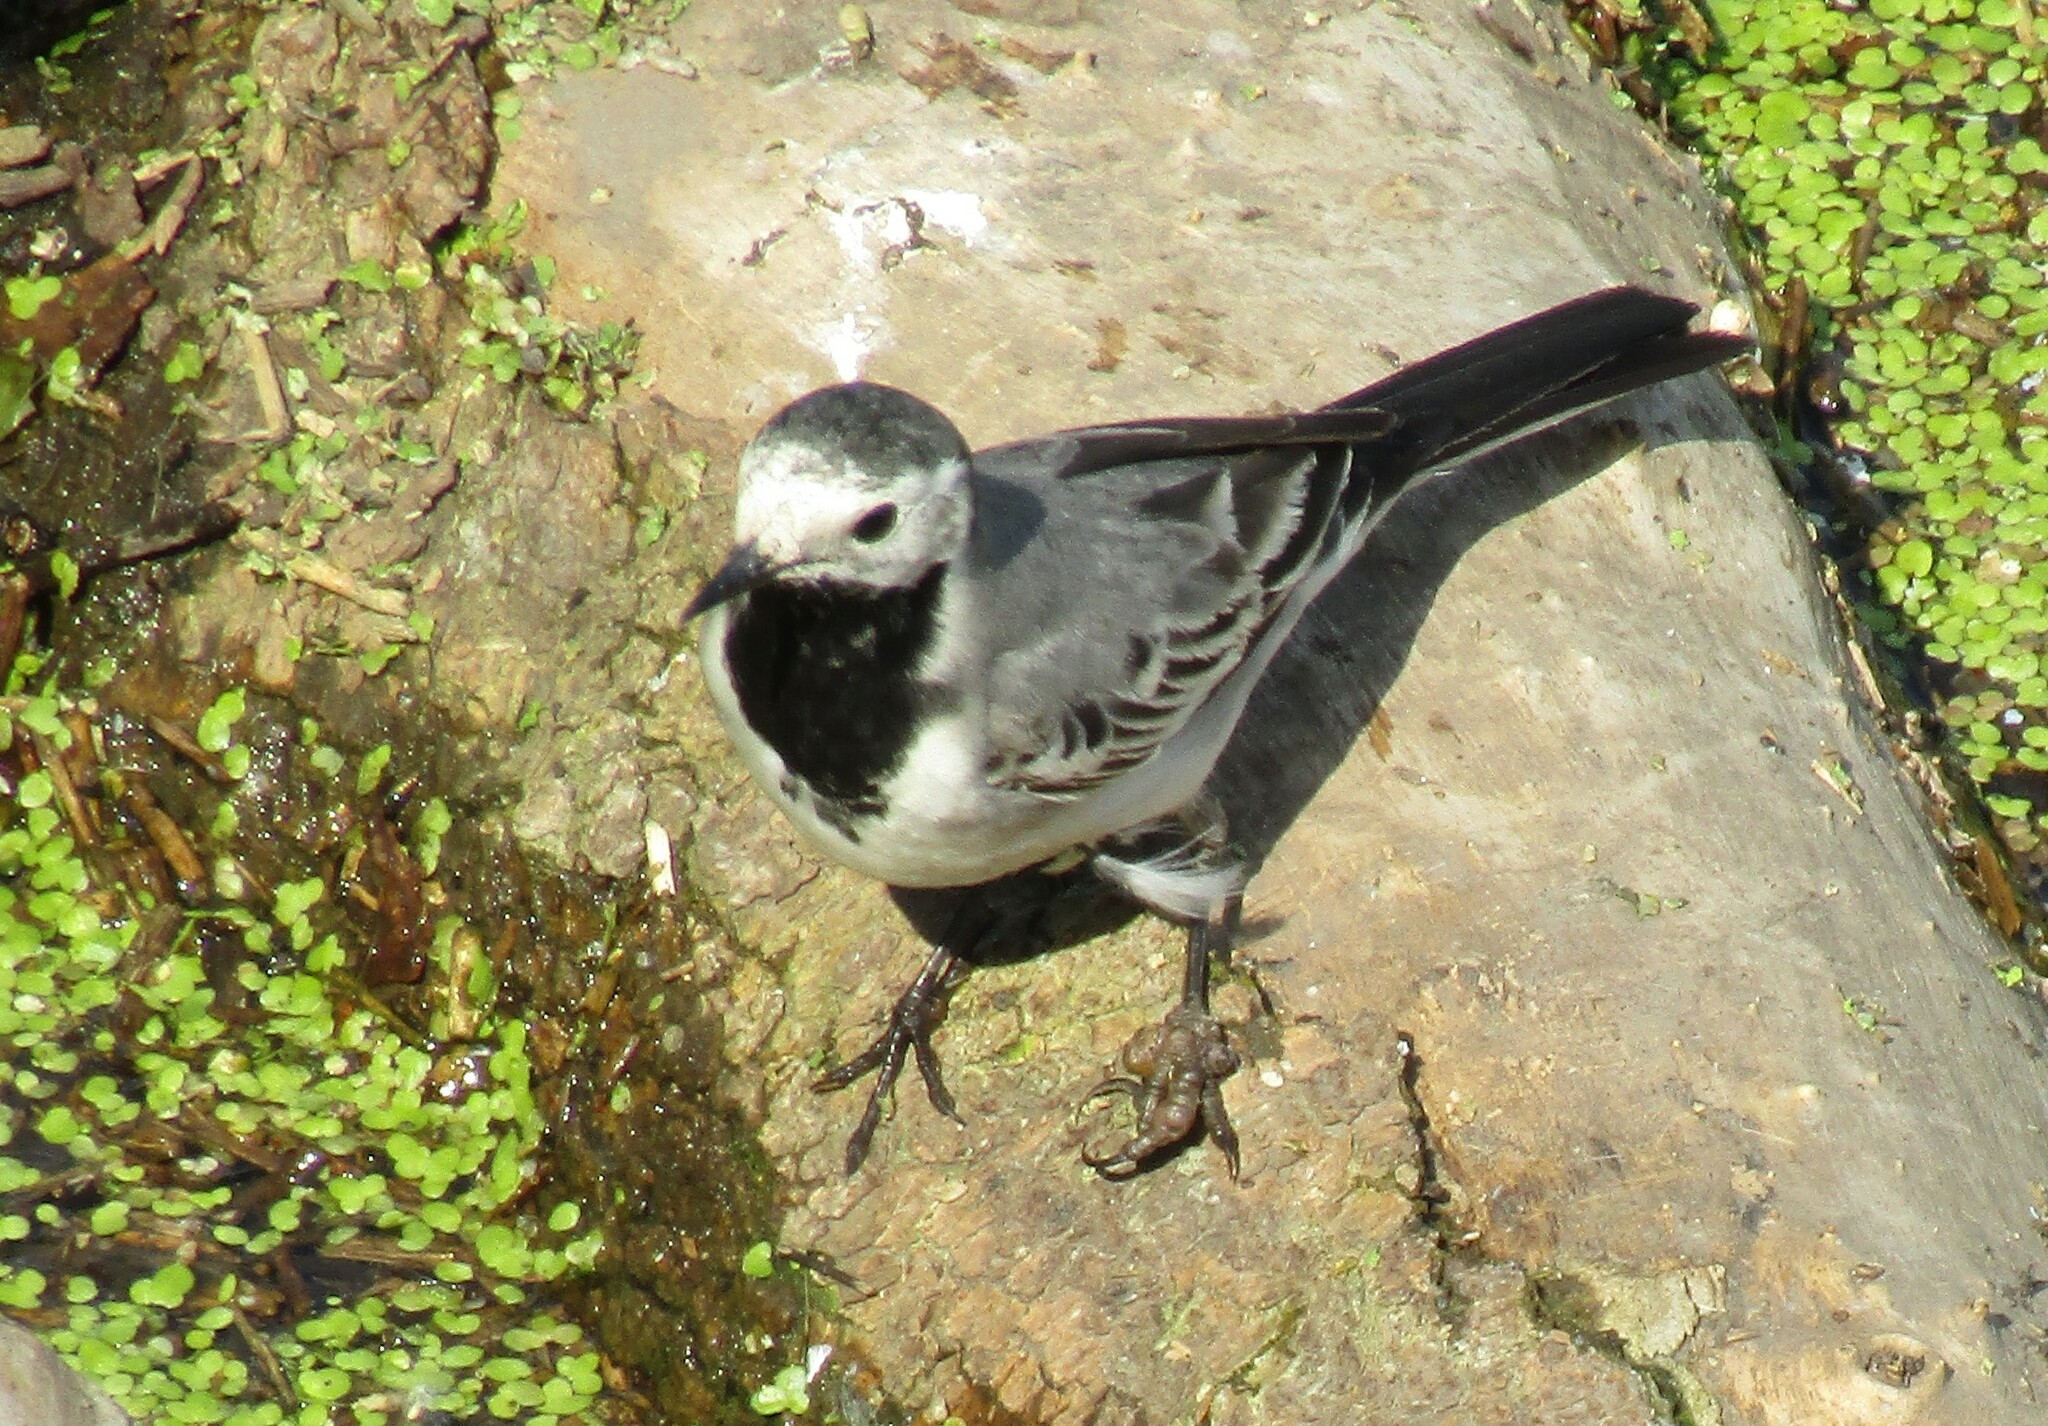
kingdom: Animalia
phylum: Chordata
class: Aves
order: Passeriformes
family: Motacillidae
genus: Motacilla
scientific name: Motacilla alba
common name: White wagtail
